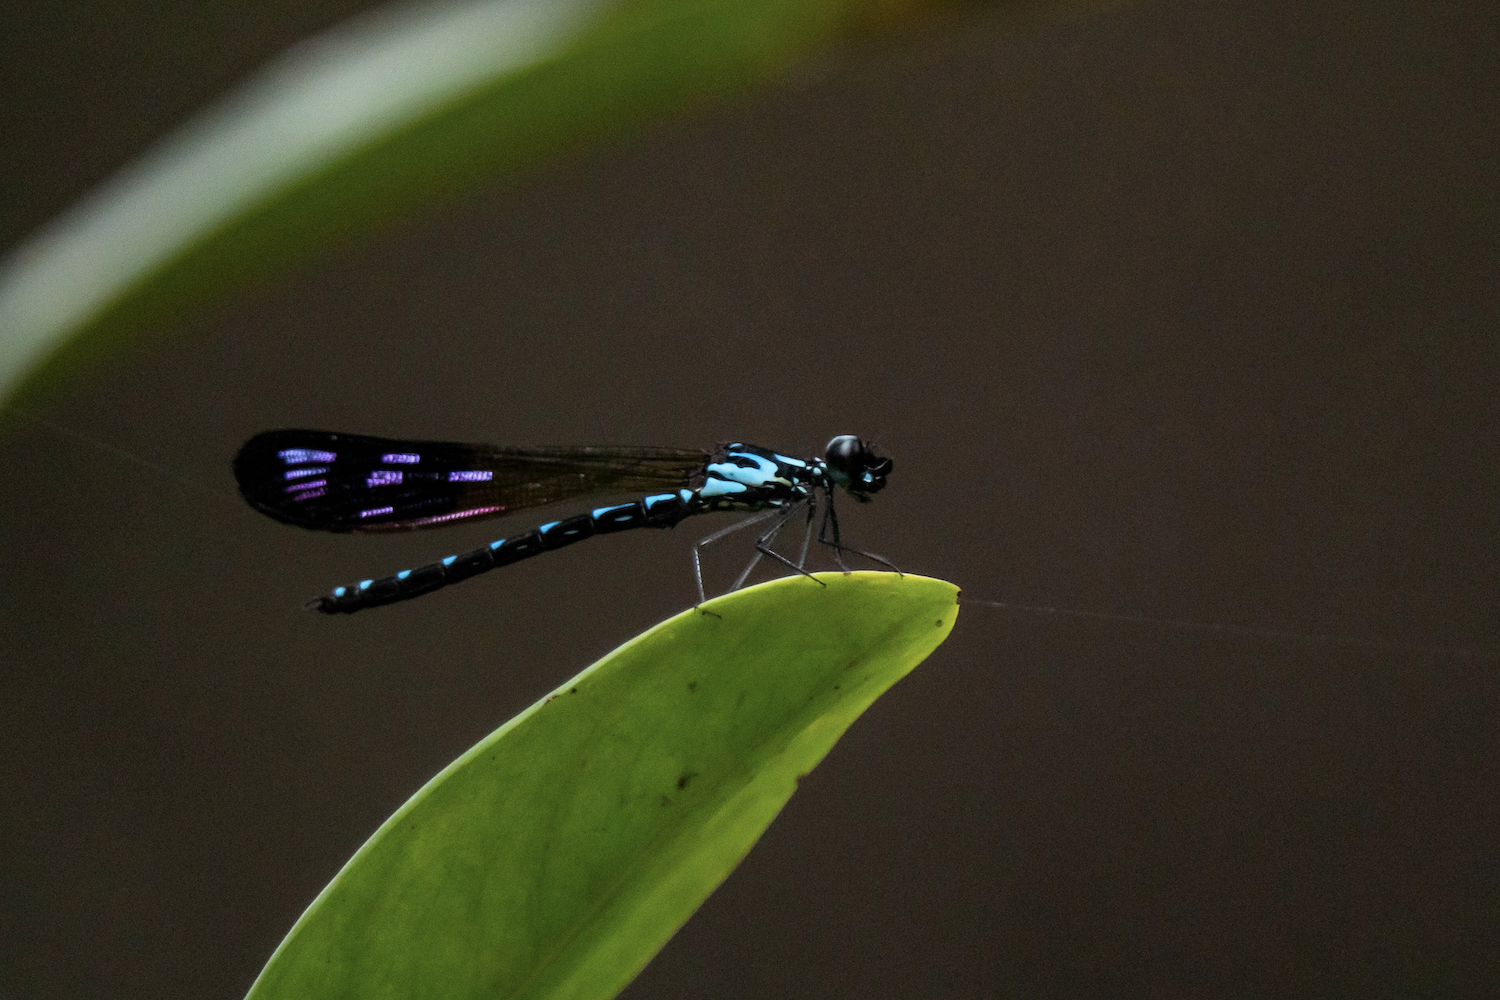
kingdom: Animalia
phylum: Arthropoda
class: Insecta
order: Odonata
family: Chlorocyphidae
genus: Heliocypha
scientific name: Heliocypha perforata
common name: Common blue jewel
